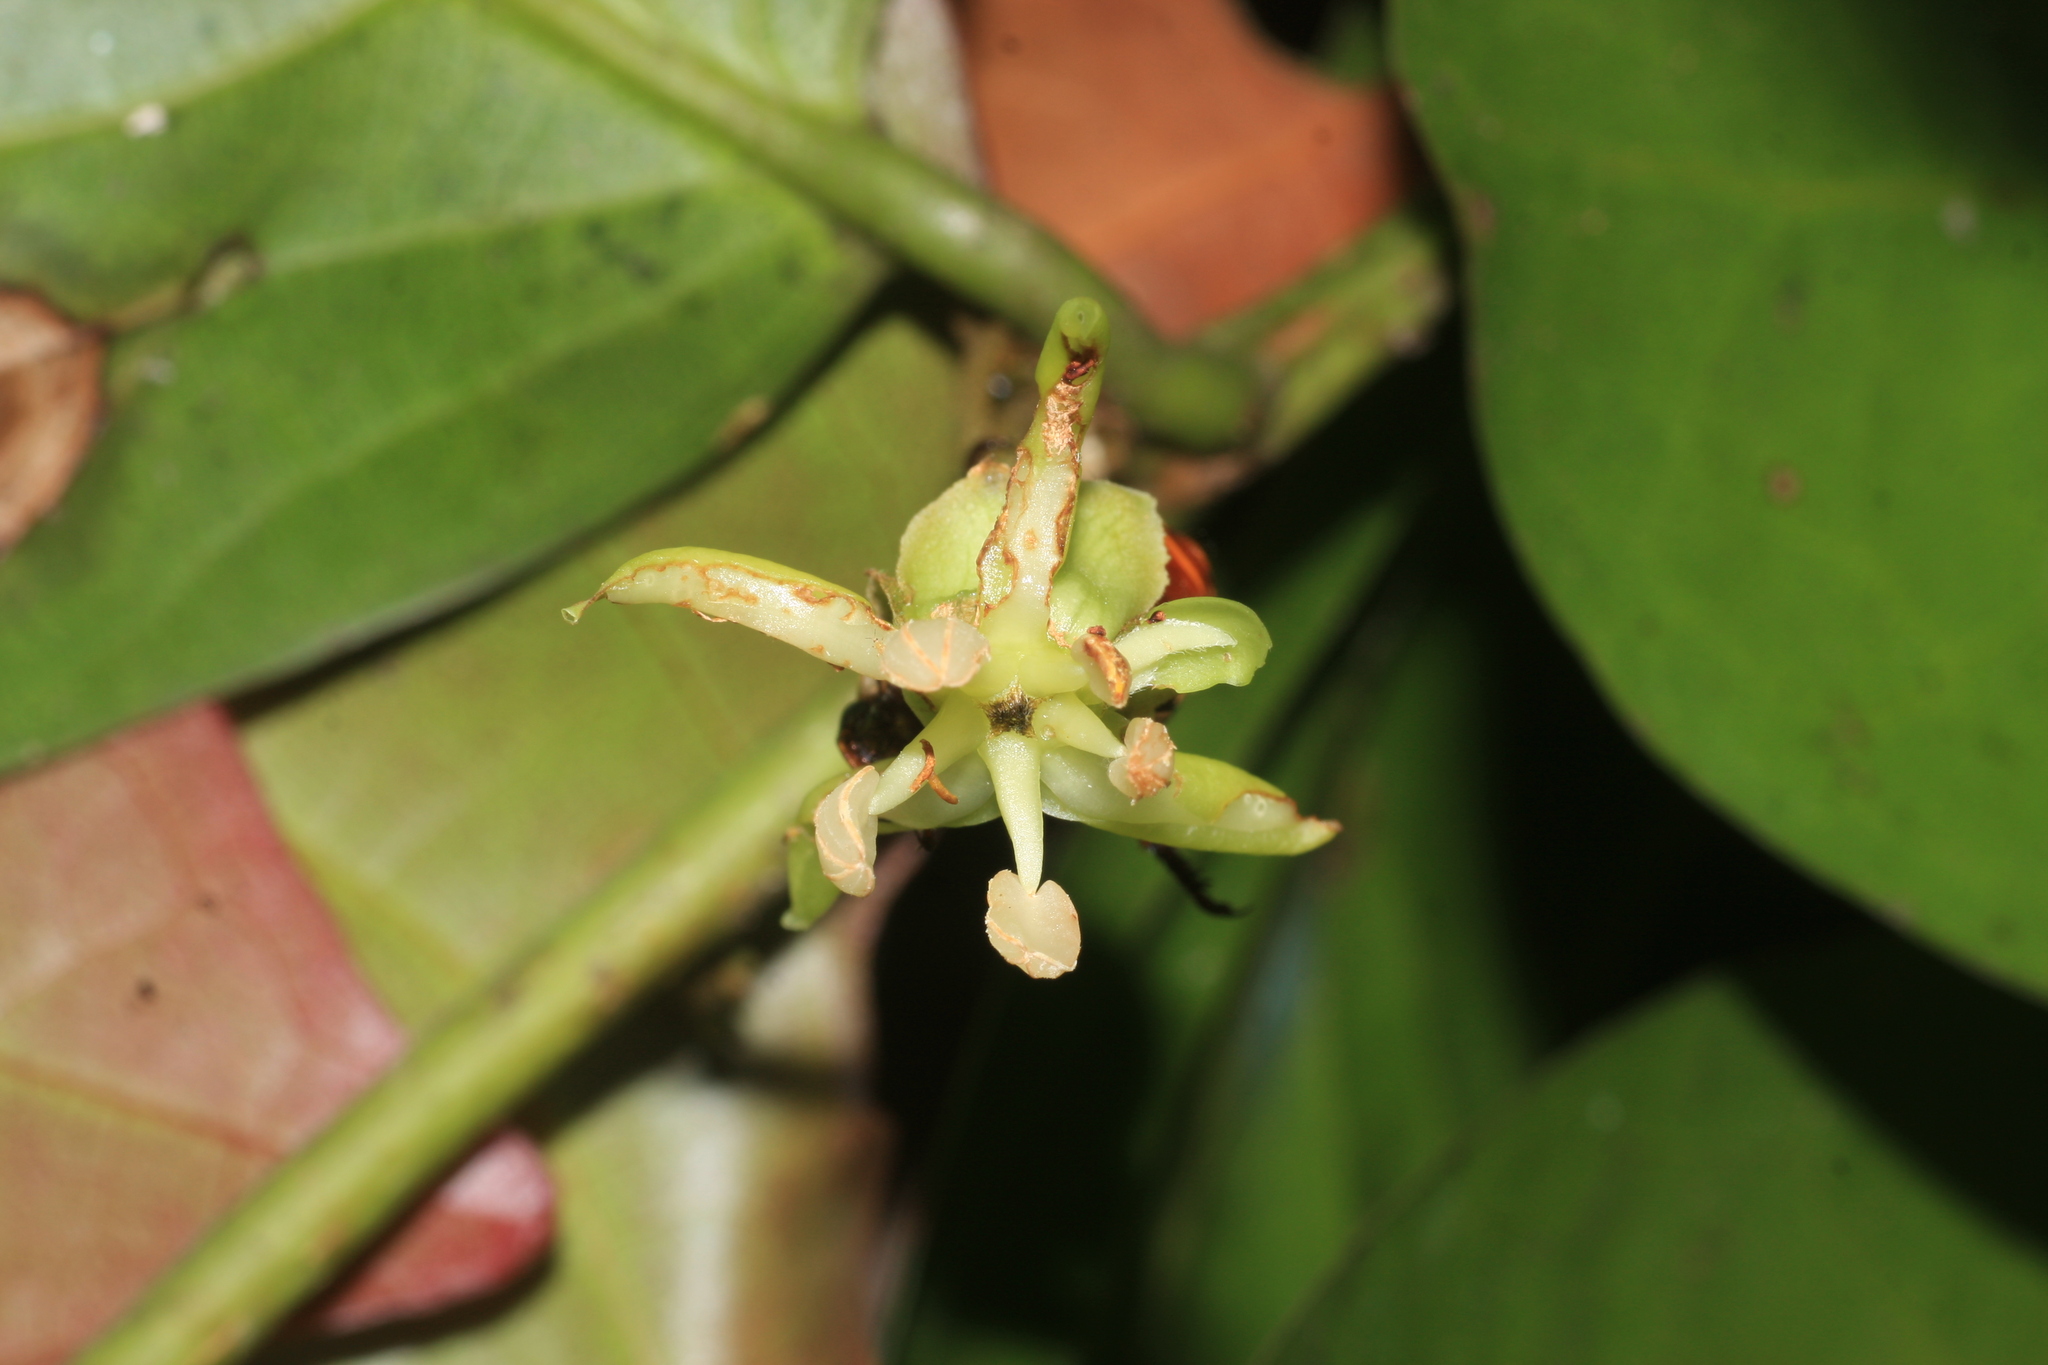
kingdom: Plantae
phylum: Tracheophyta
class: Magnoliopsida
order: Malpighiales
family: Achariaceae
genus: Hydnocarpus
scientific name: Hydnocarpus alpinus
